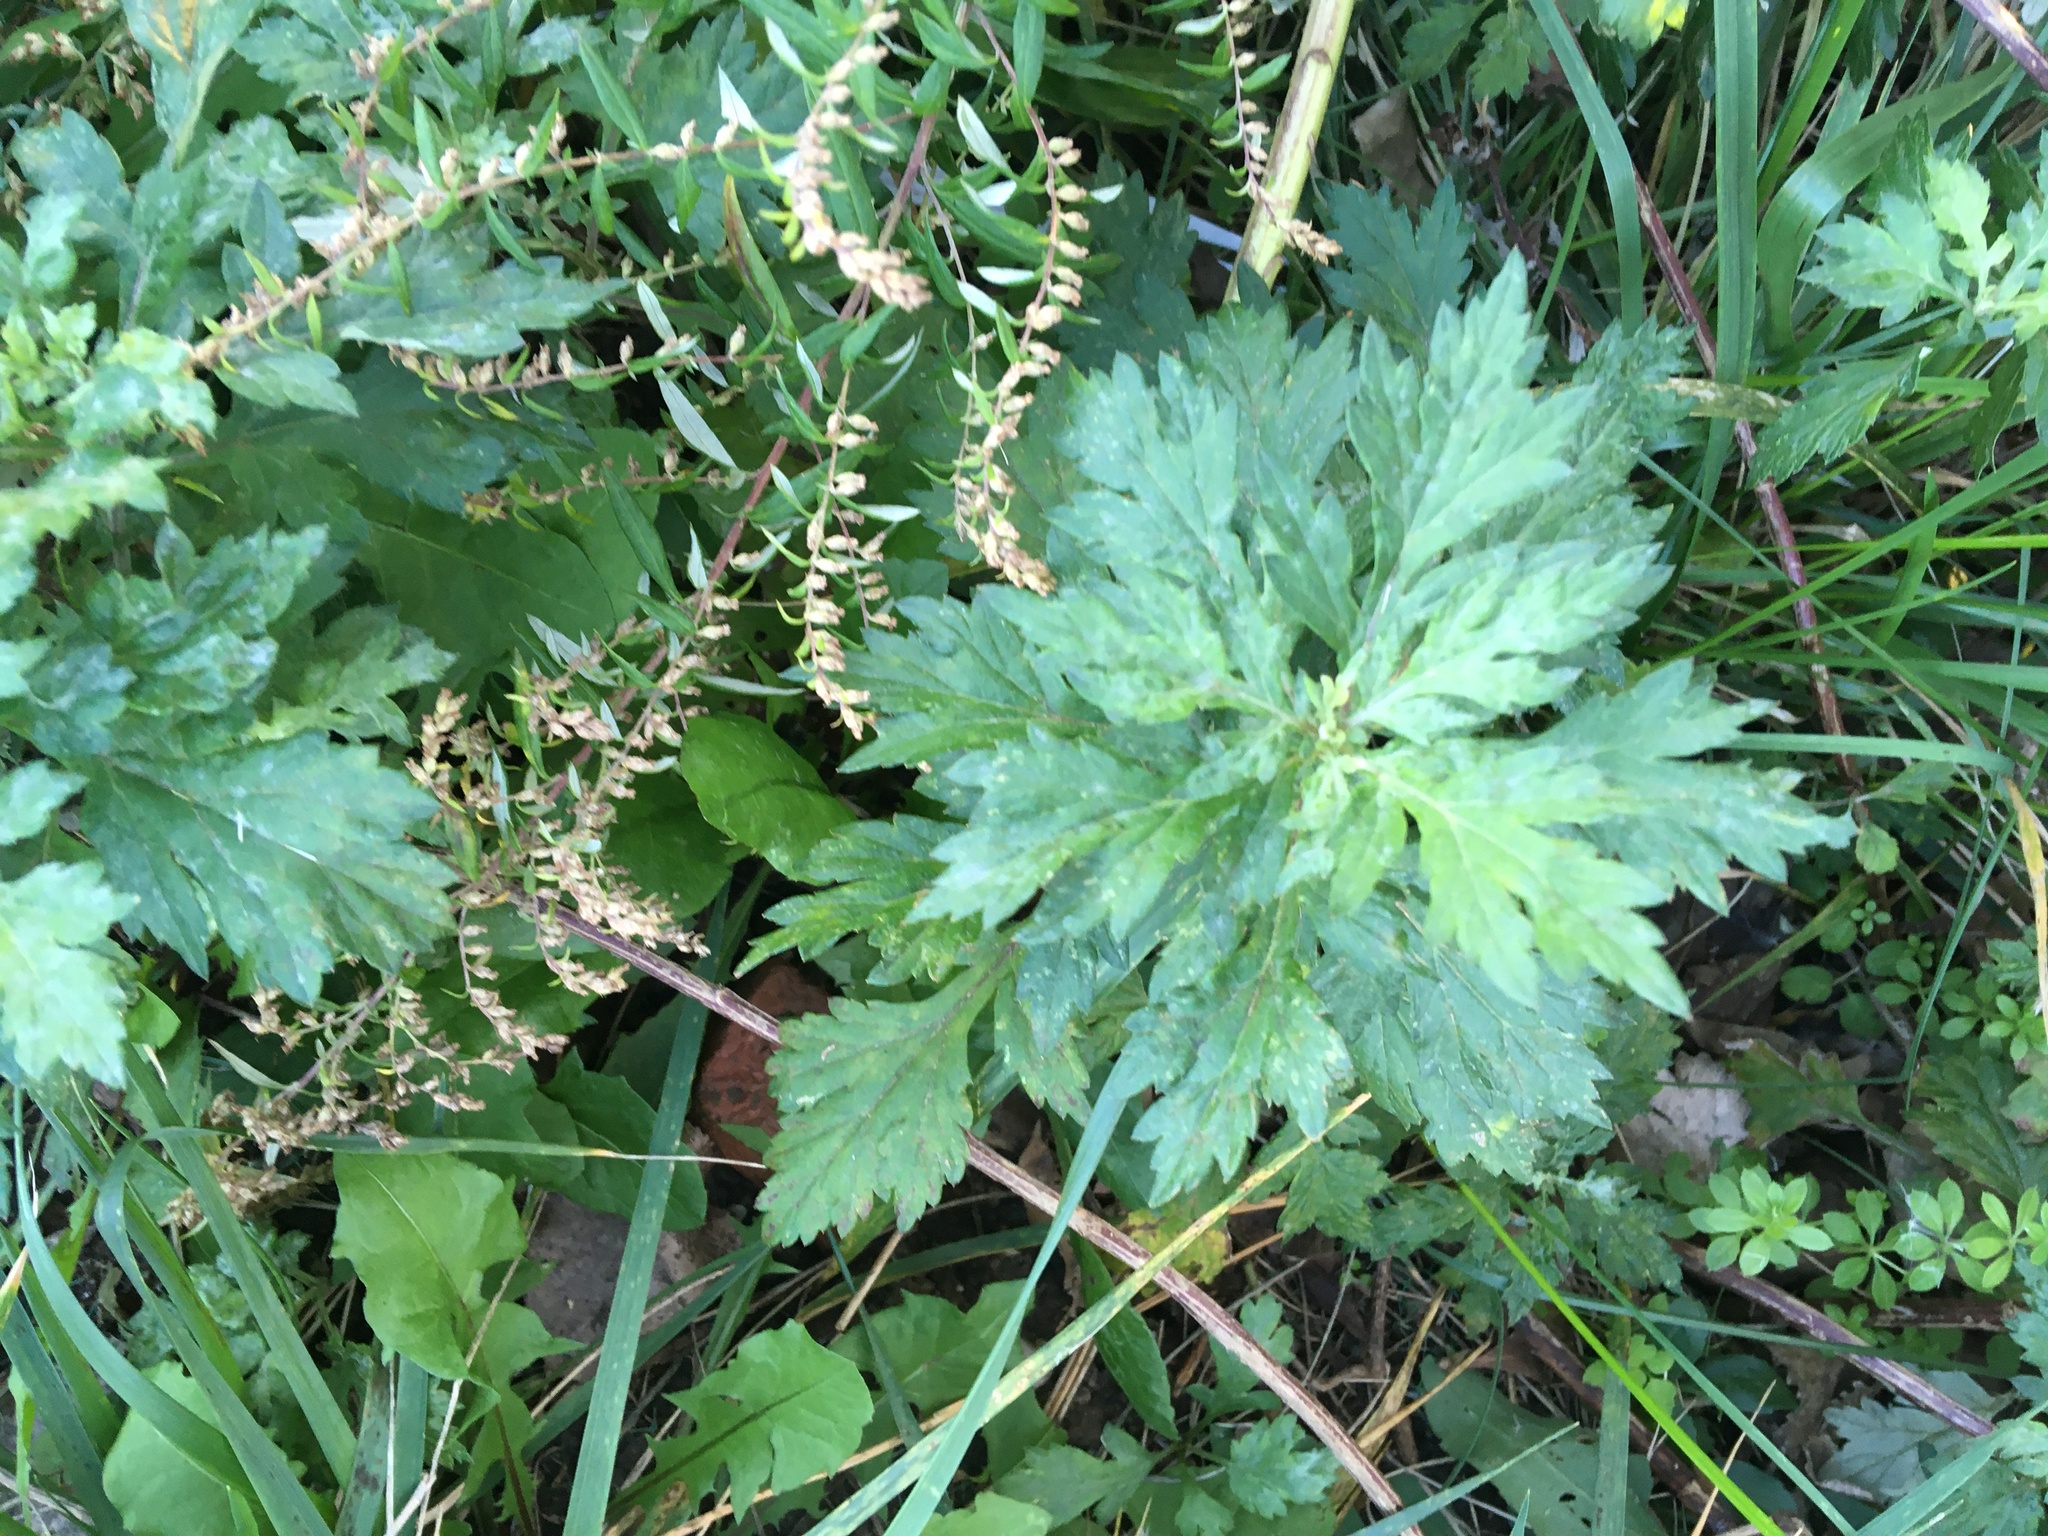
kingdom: Plantae
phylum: Tracheophyta
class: Magnoliopsida
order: Asterales
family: Asteraceae
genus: Artemisia
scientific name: Artemisia vulgaris
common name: Mugwort
